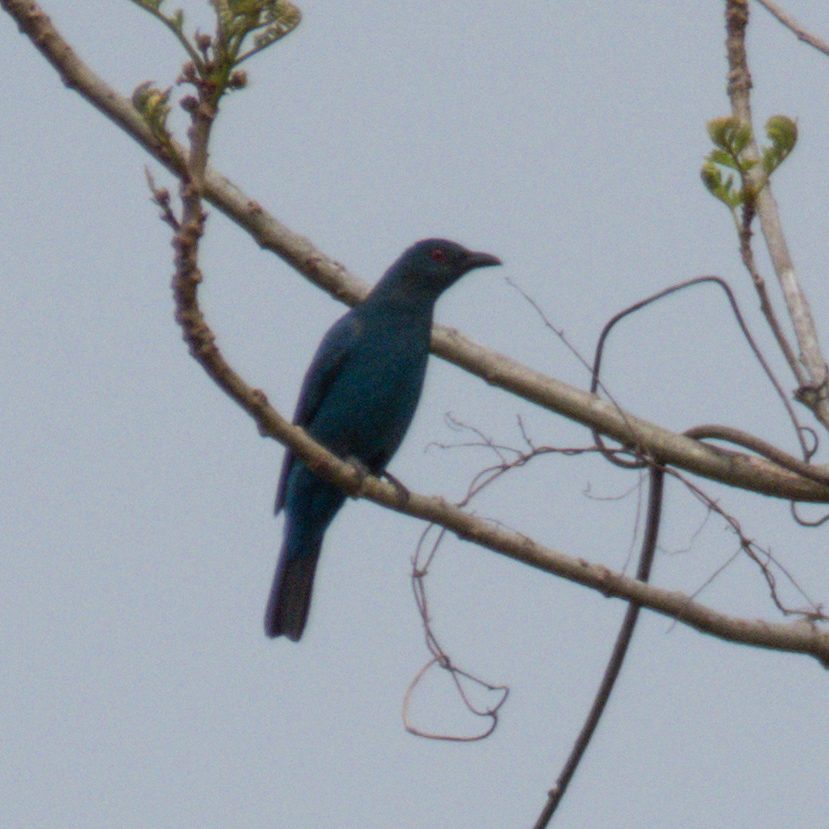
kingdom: Animalia
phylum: Chordata
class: Aves
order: Passeriformes
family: Irenidae
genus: Irena
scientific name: Irena puella
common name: Asian fairy-bluebird
